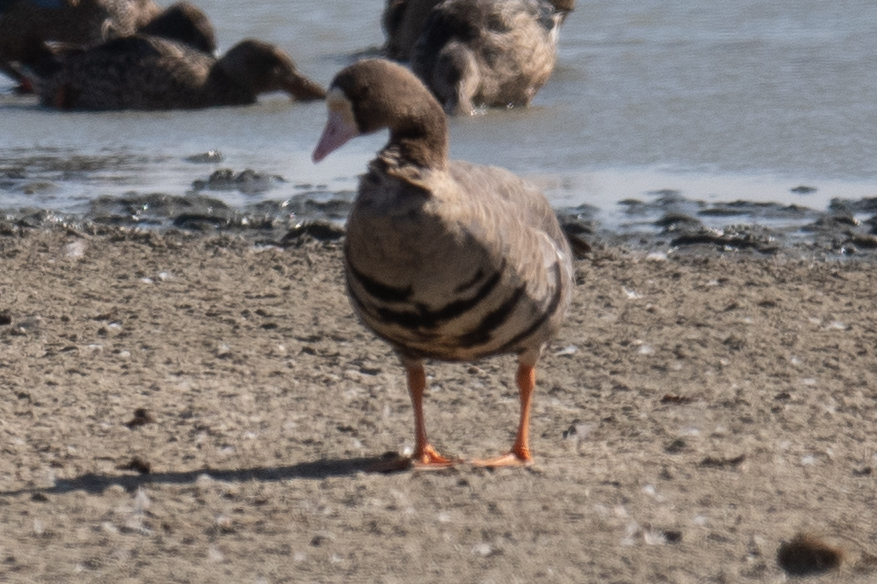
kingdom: Animalia
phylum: Chordata
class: Aves
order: Anseriformes
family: Anatidae
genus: Anser
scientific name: Anser albifrons
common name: Greater white-fronted goose
